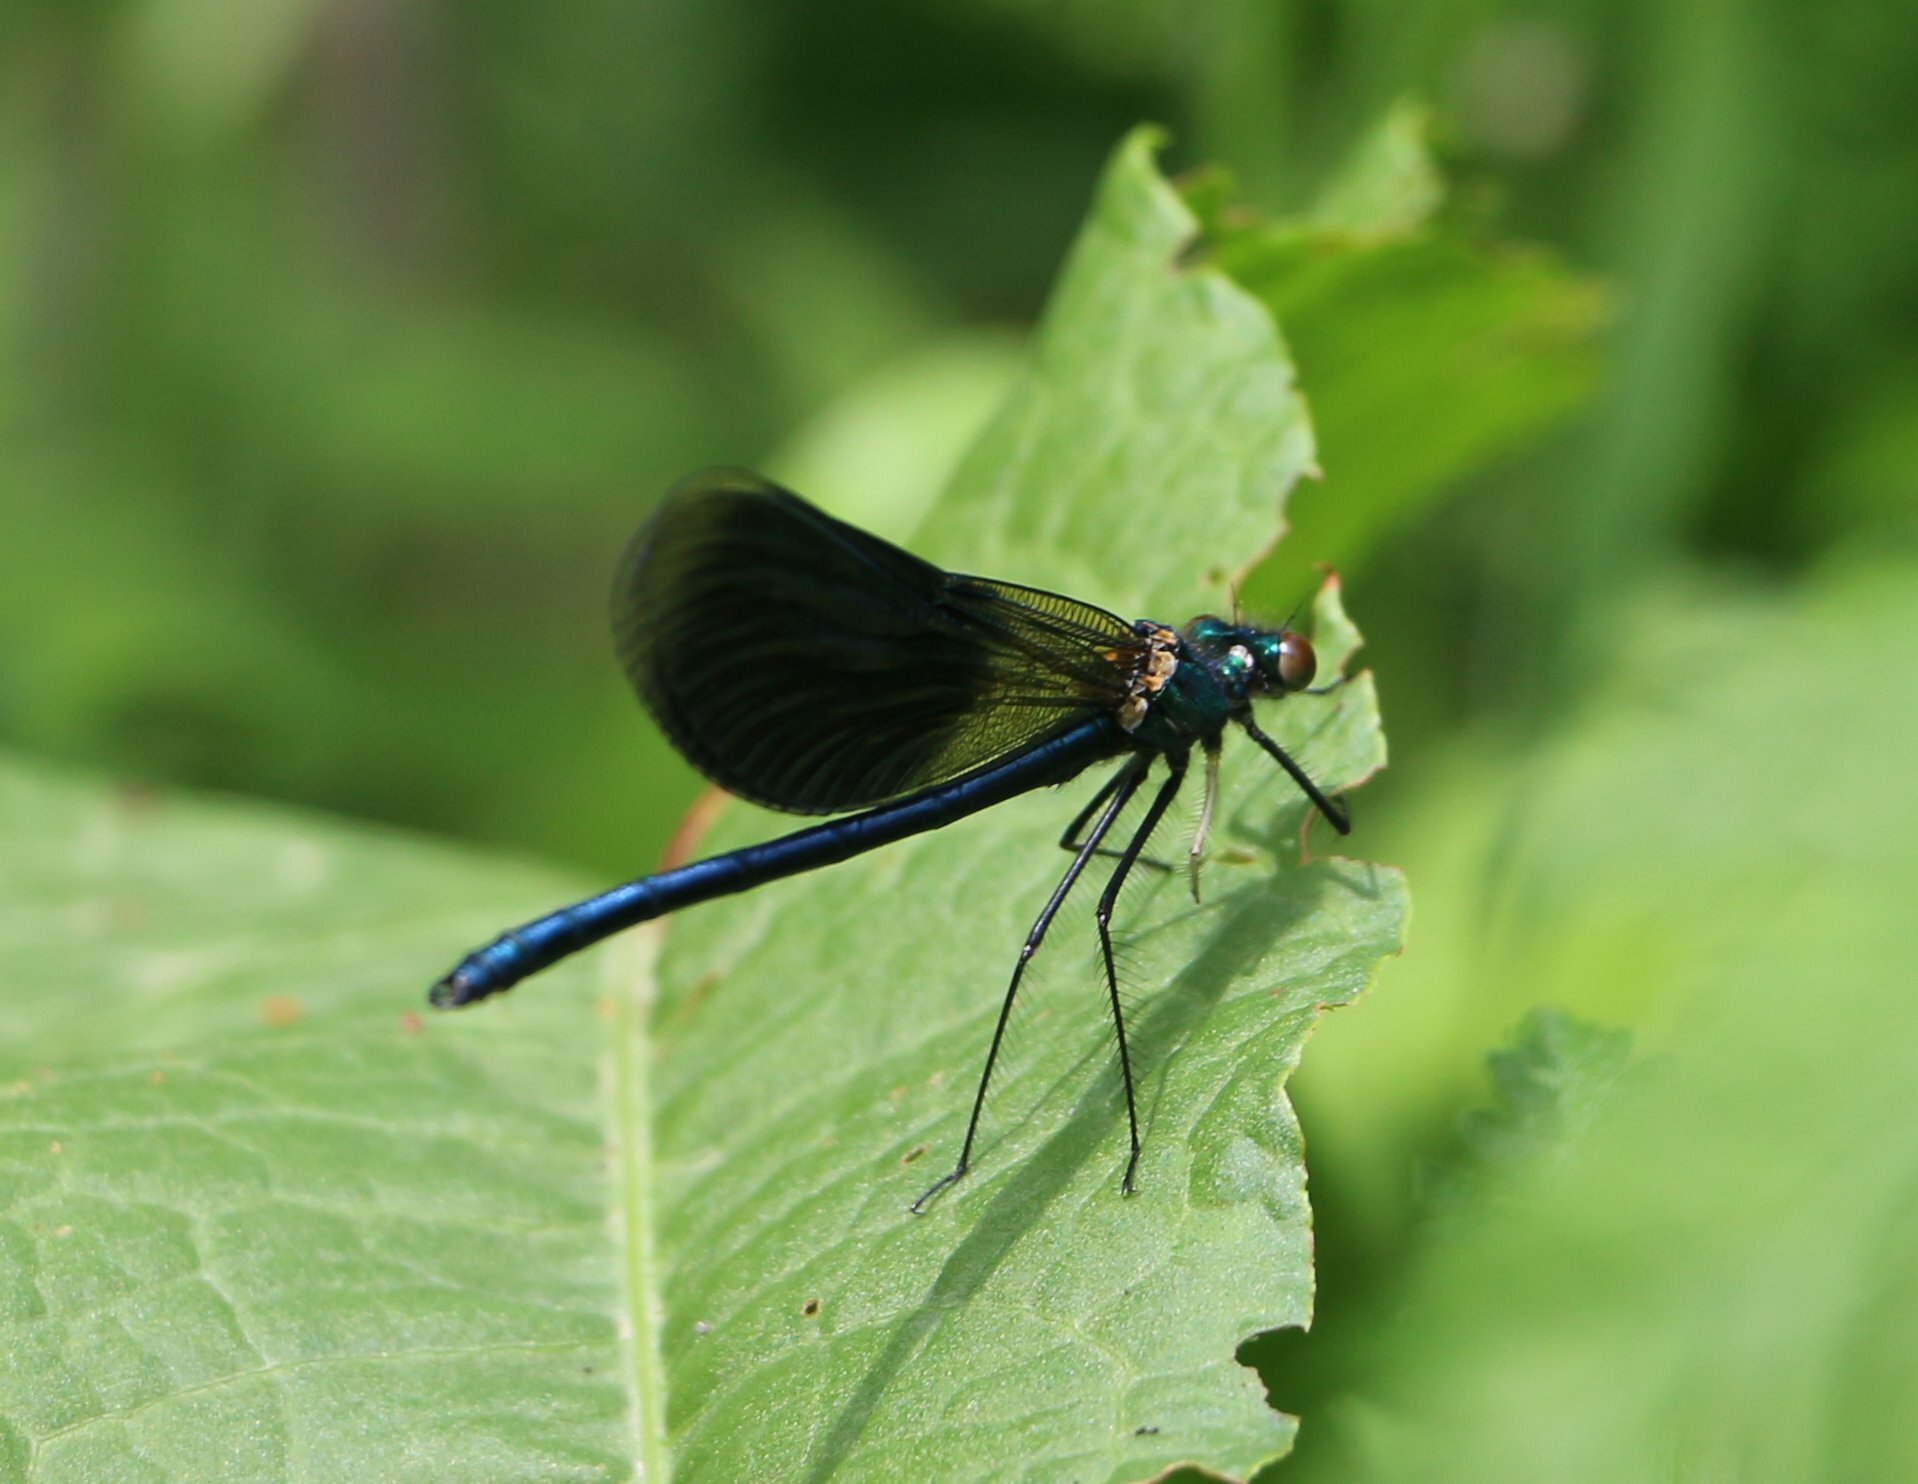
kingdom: Animalia
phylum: Arthropoda
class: Insecta
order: Odonata
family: Calopterygidae
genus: Calopteryx
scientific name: Calopteryx splendens
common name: Banded demoiselle
